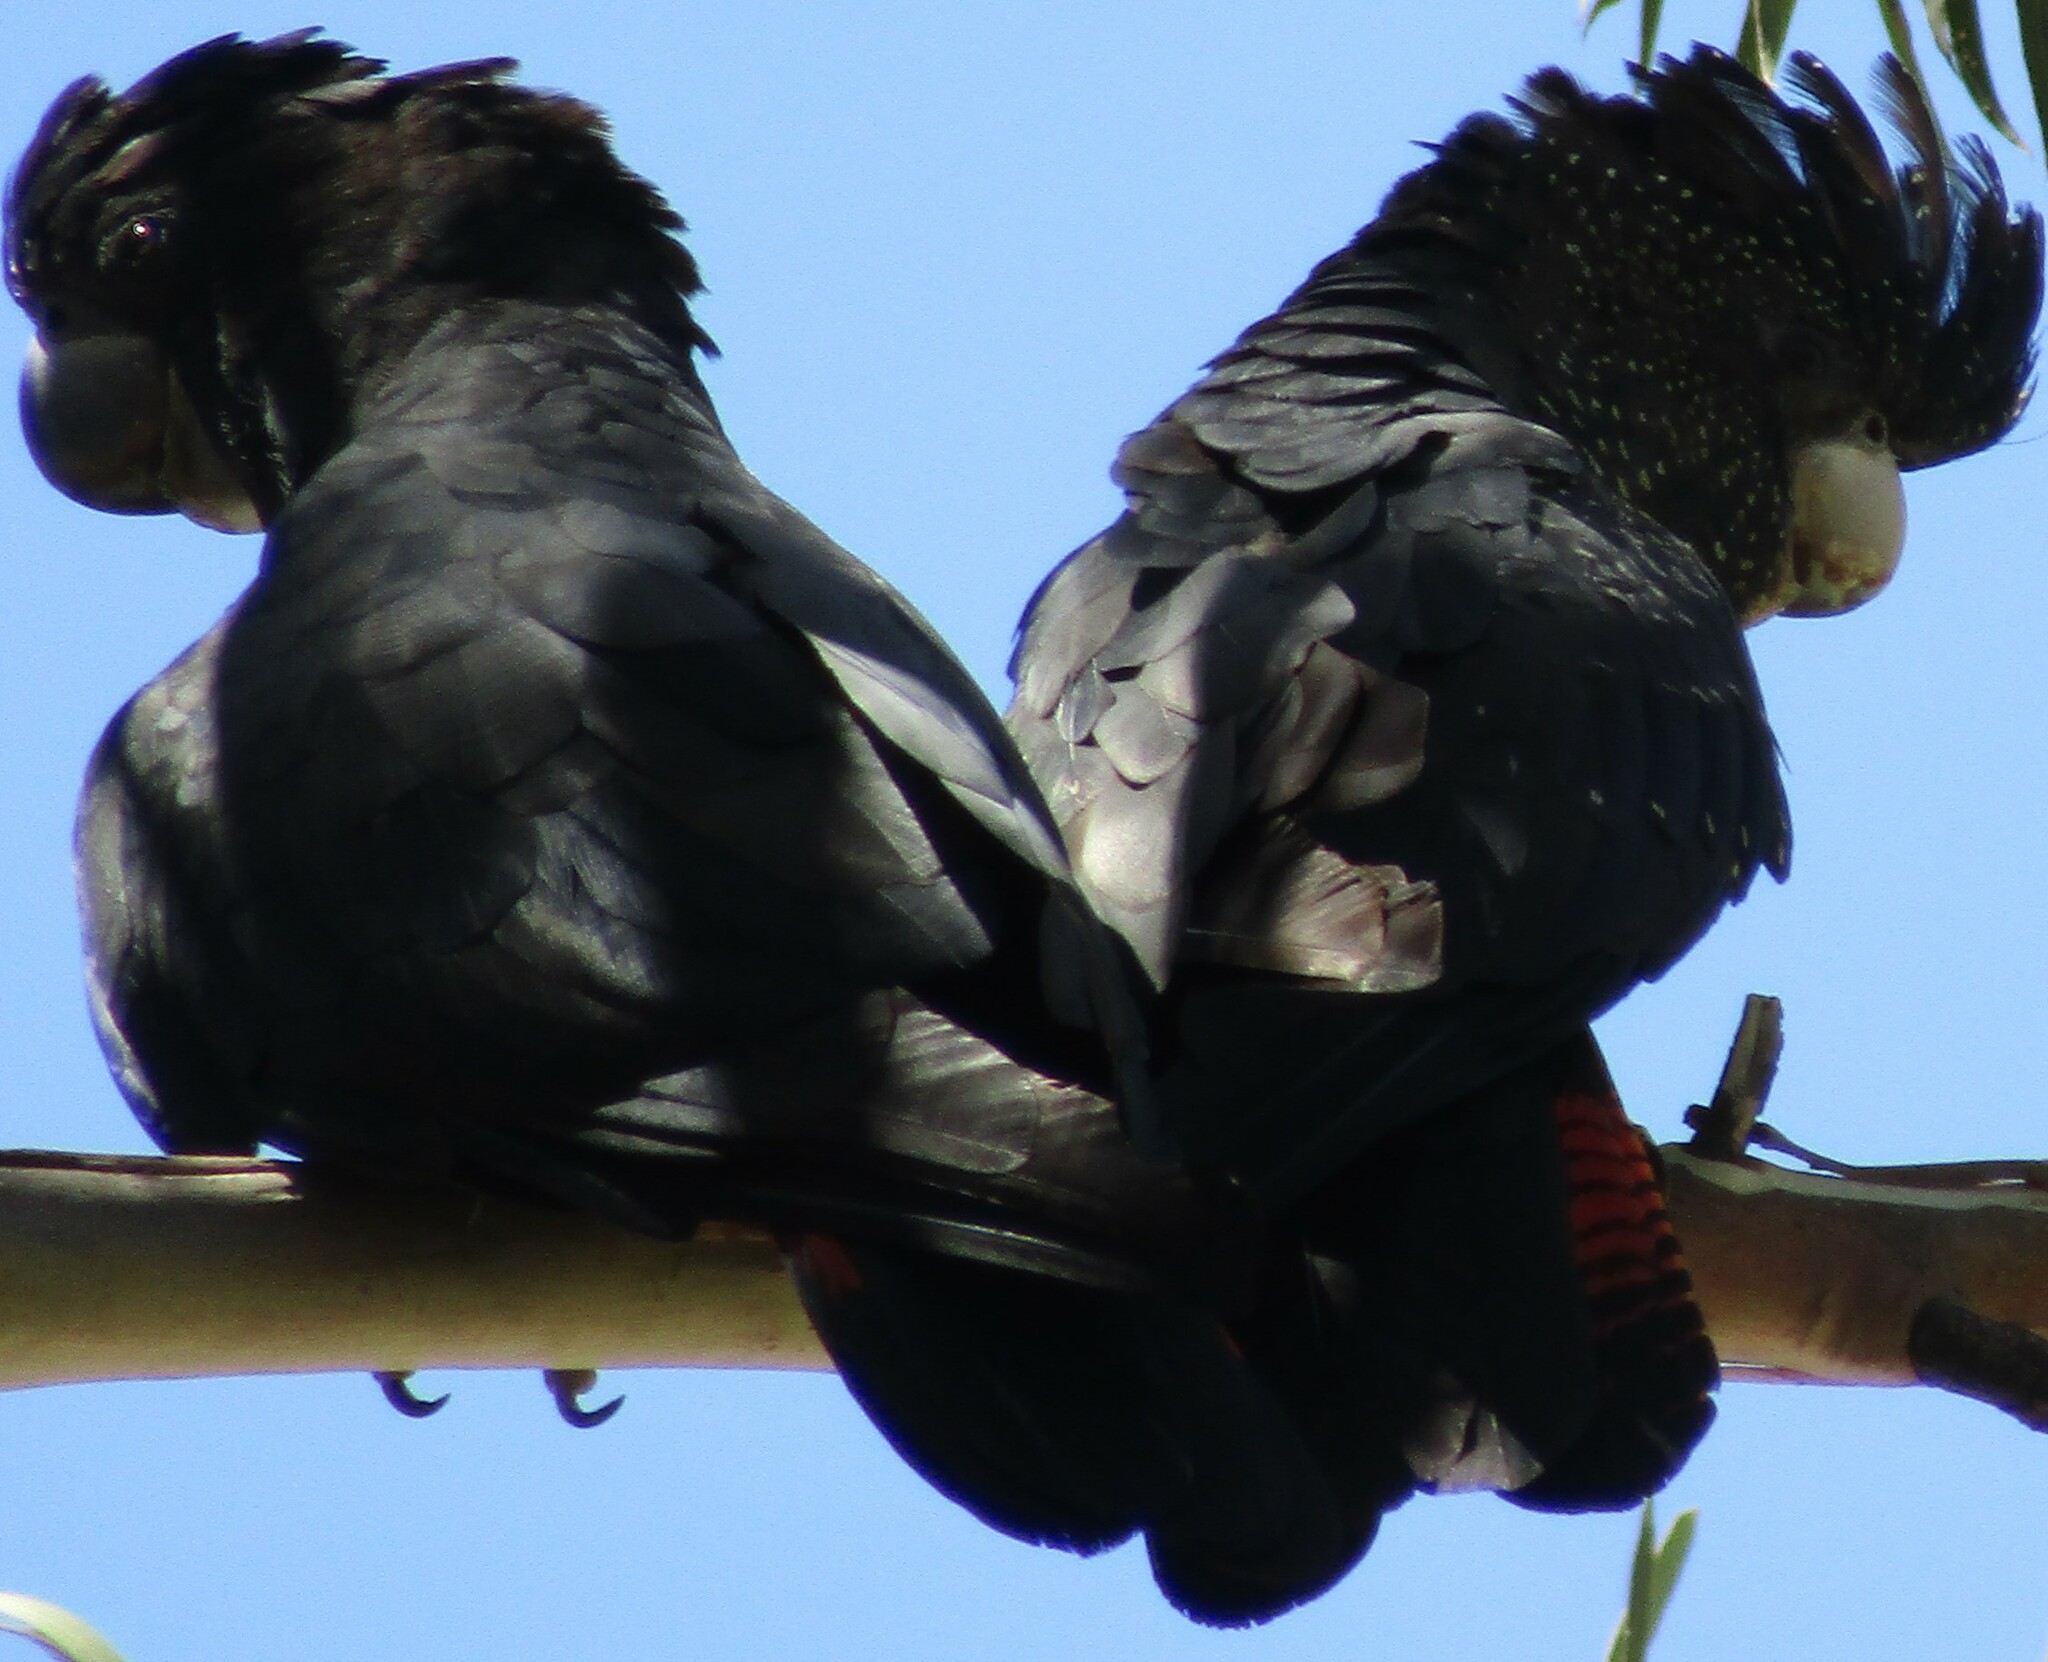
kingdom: Animalia
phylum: Chordata
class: Aves
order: Psittaciformes
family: Psittacidae
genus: Calyptorhynchus
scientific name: Calyptorhynchus banksii
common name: Red-tailed black cockatoo
